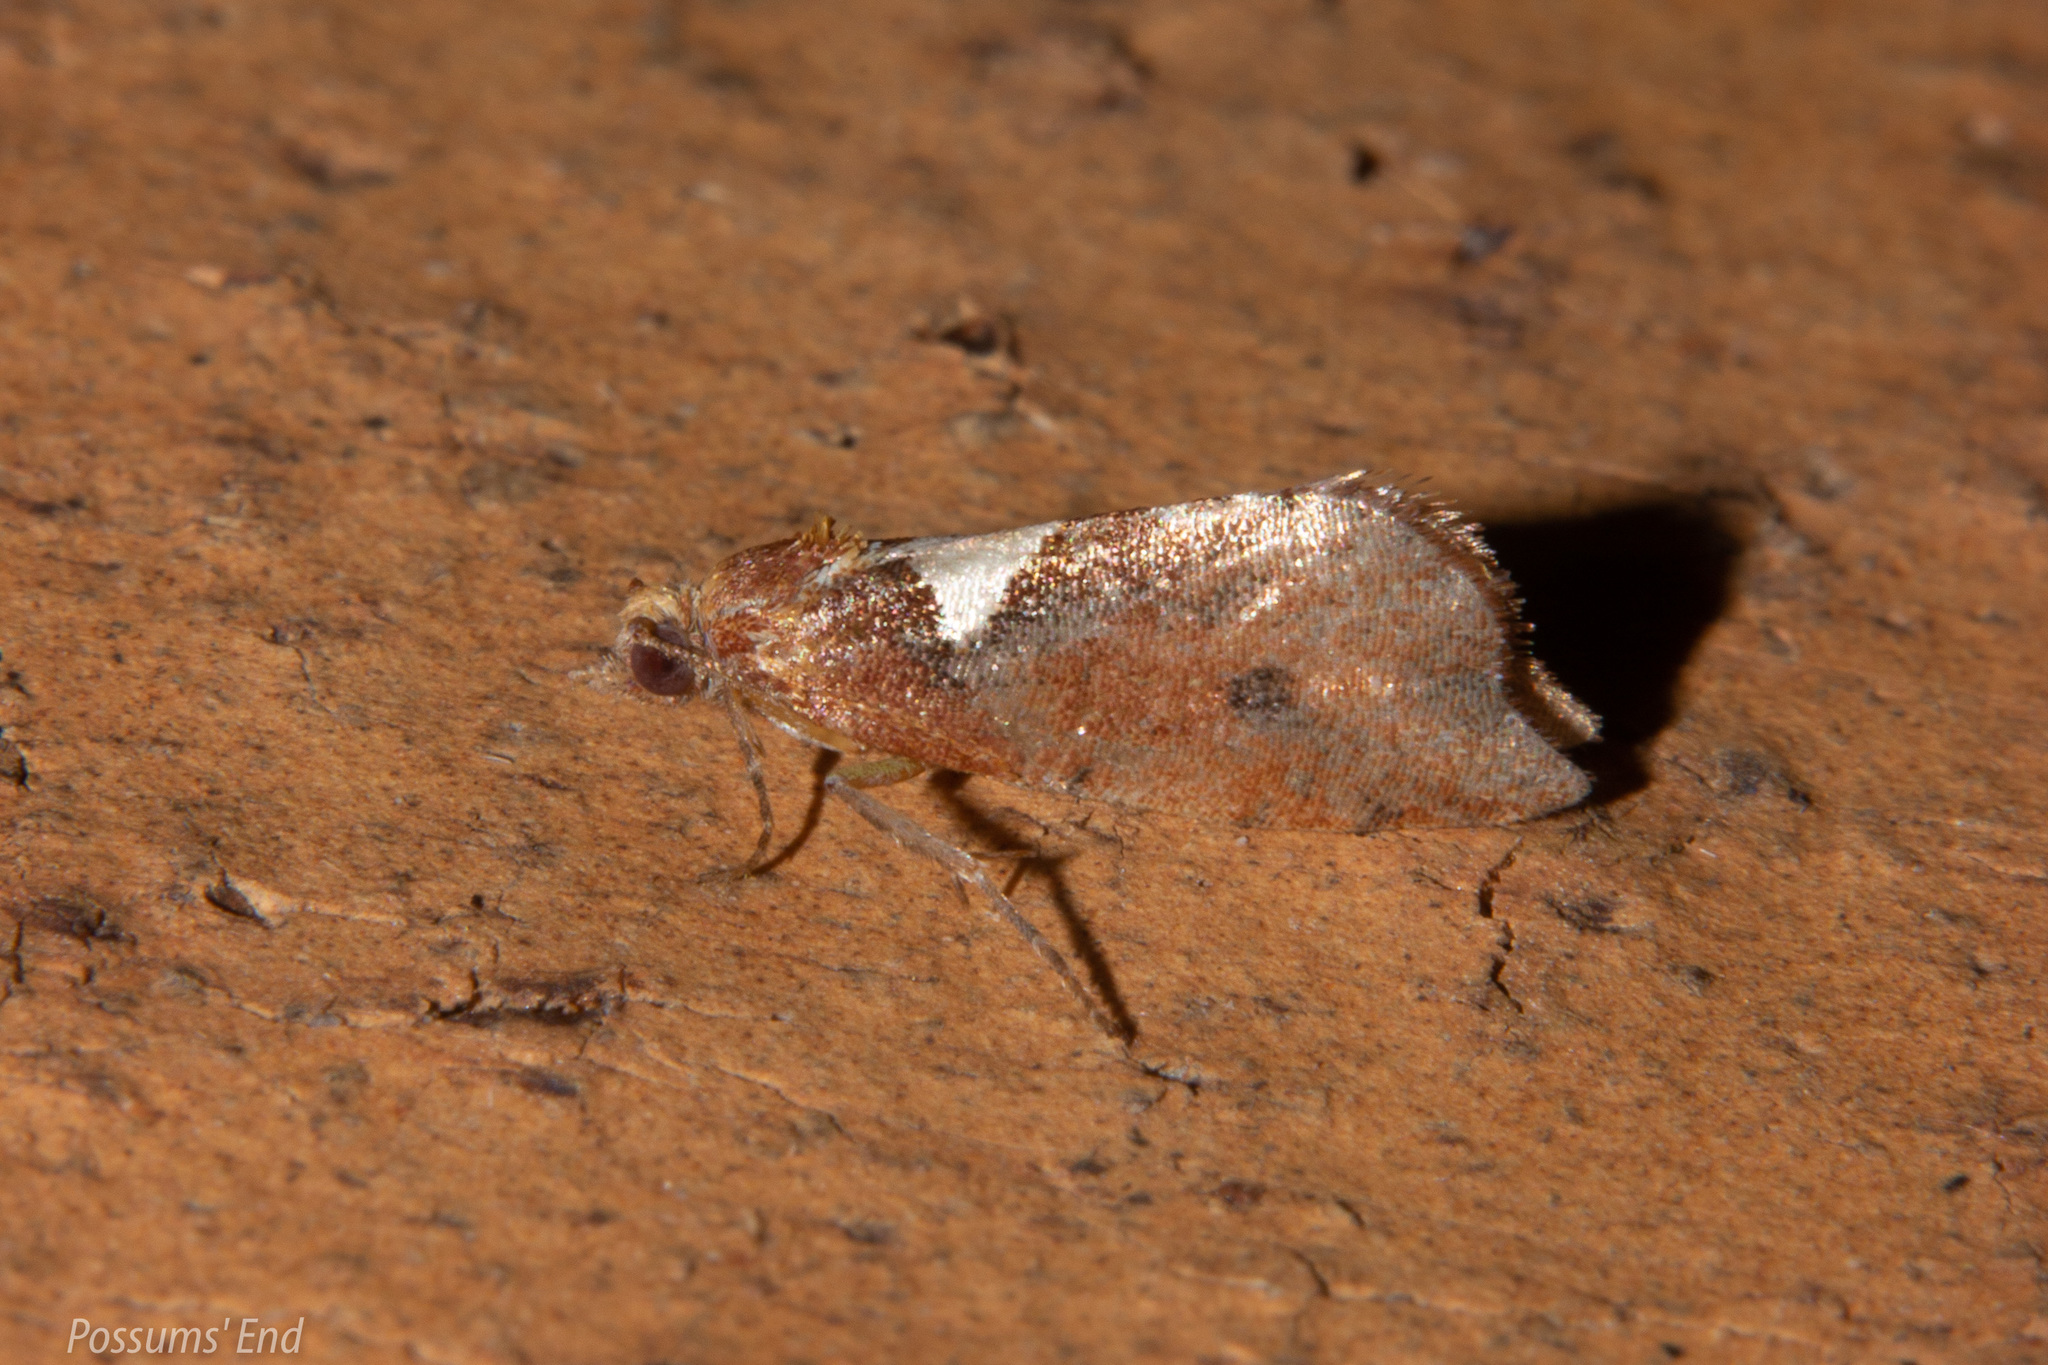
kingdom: Animalia
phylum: Arthropoda
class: Insecta
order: Lepidoptera
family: Tortricidae
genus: Pyrgotis
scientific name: Pyrgotis pyramidias
